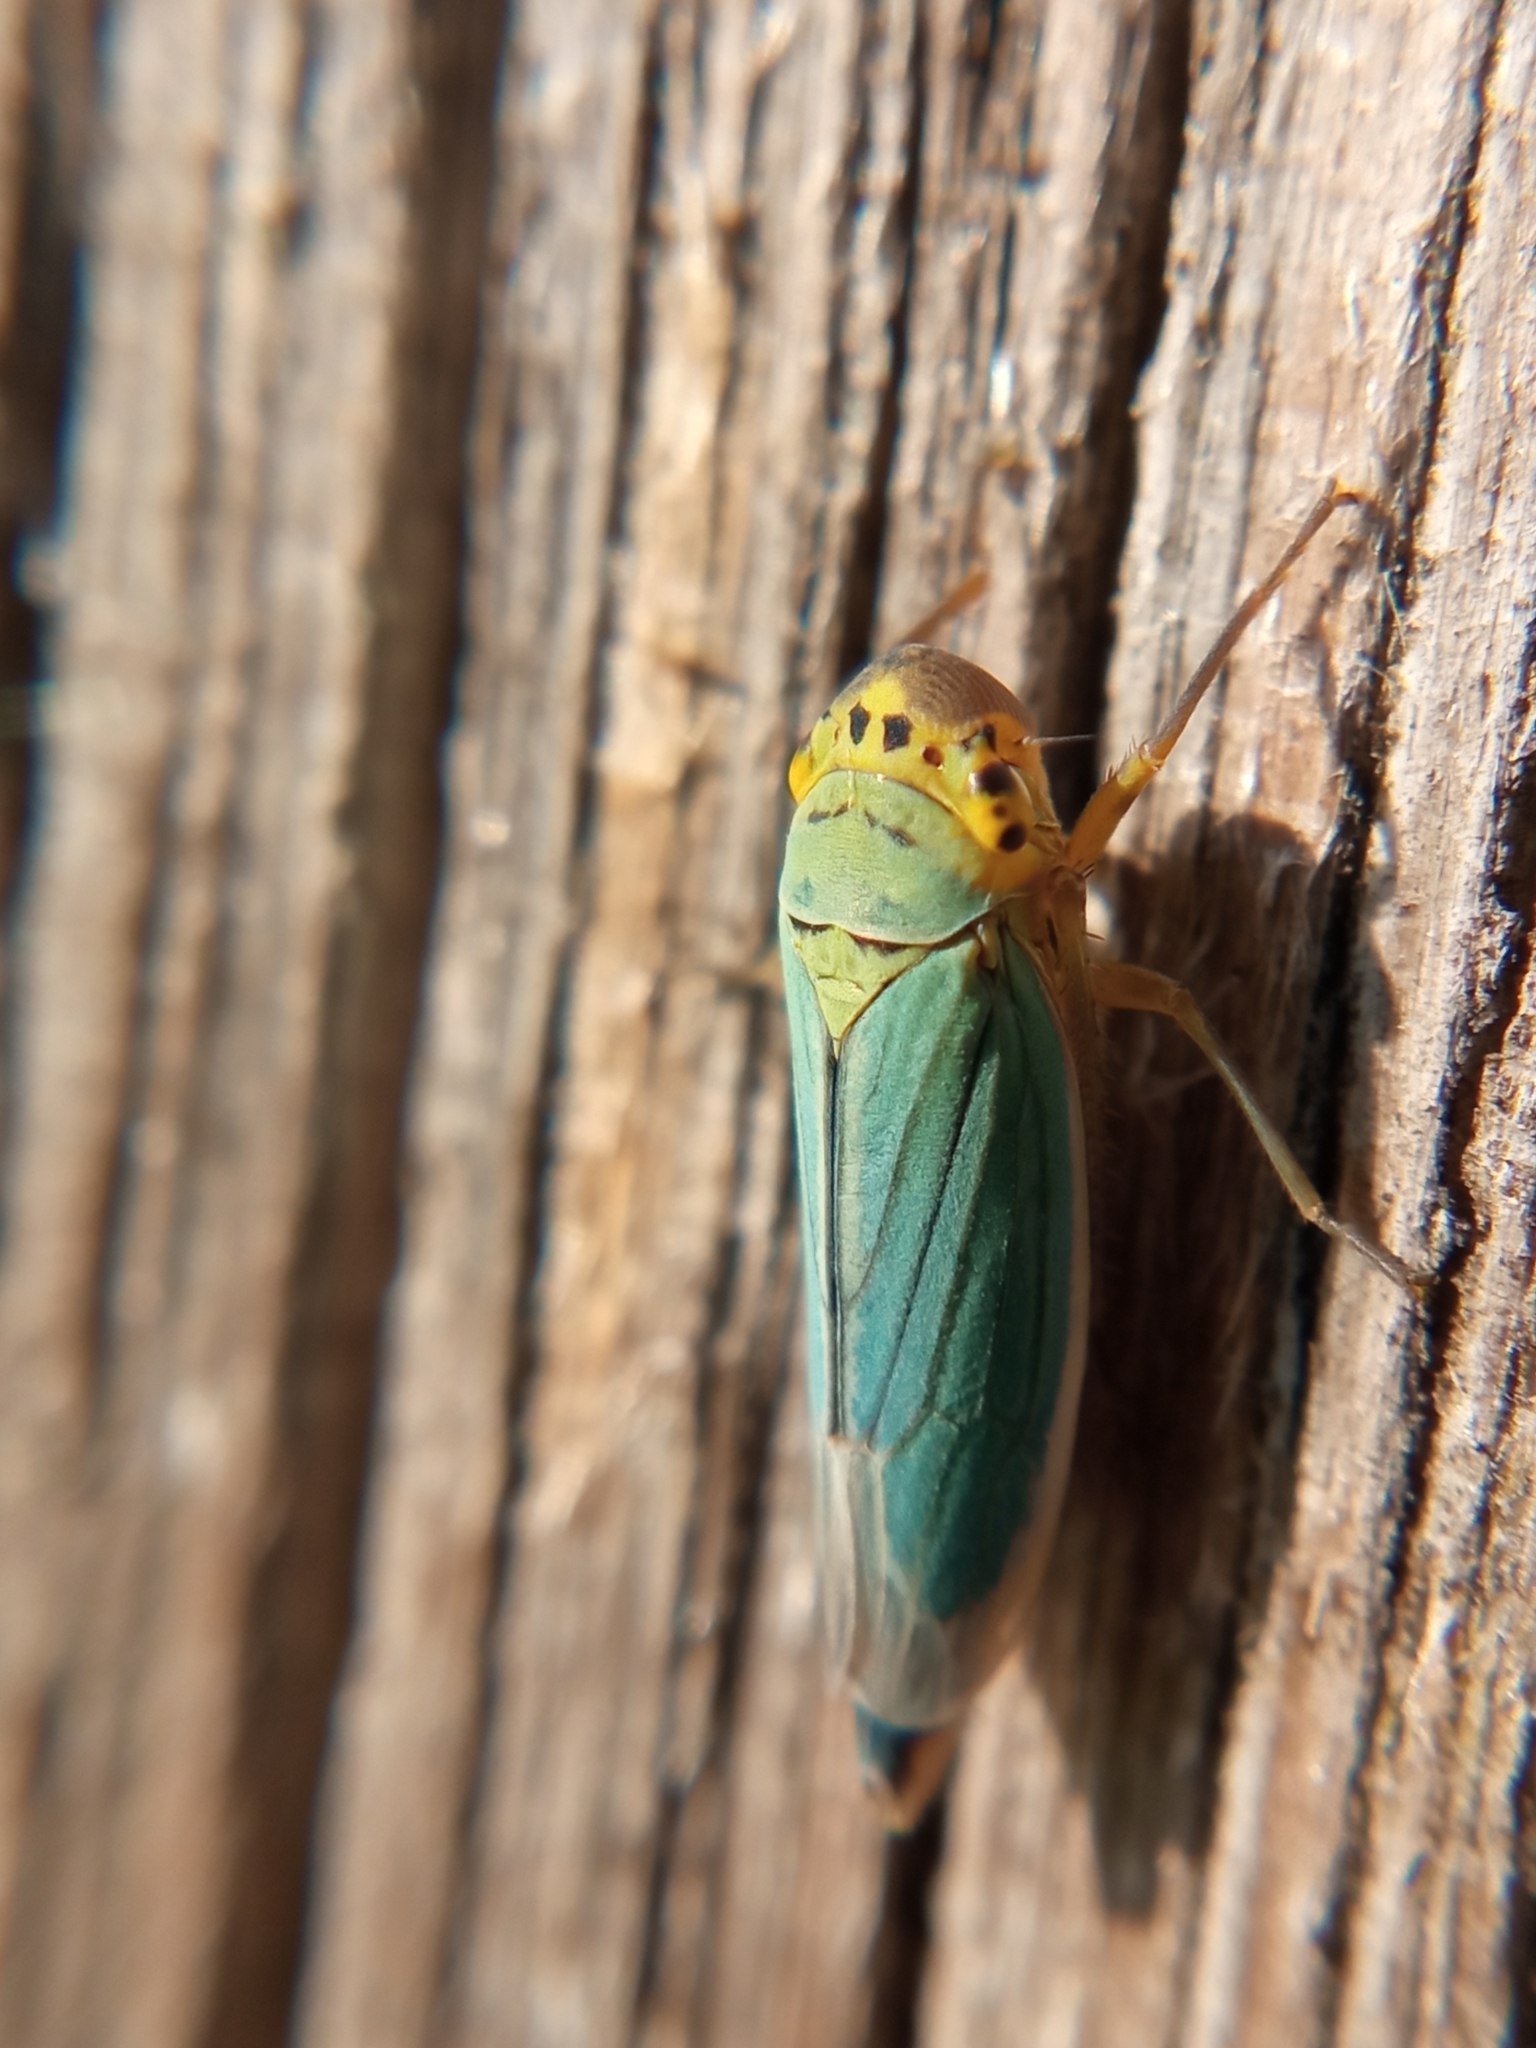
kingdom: Animalia
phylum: Arthropoda
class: Insecta
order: Hemiptera
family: Cicadellidae
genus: Cicadella
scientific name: Cicadella viridis
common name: Leafhopper
